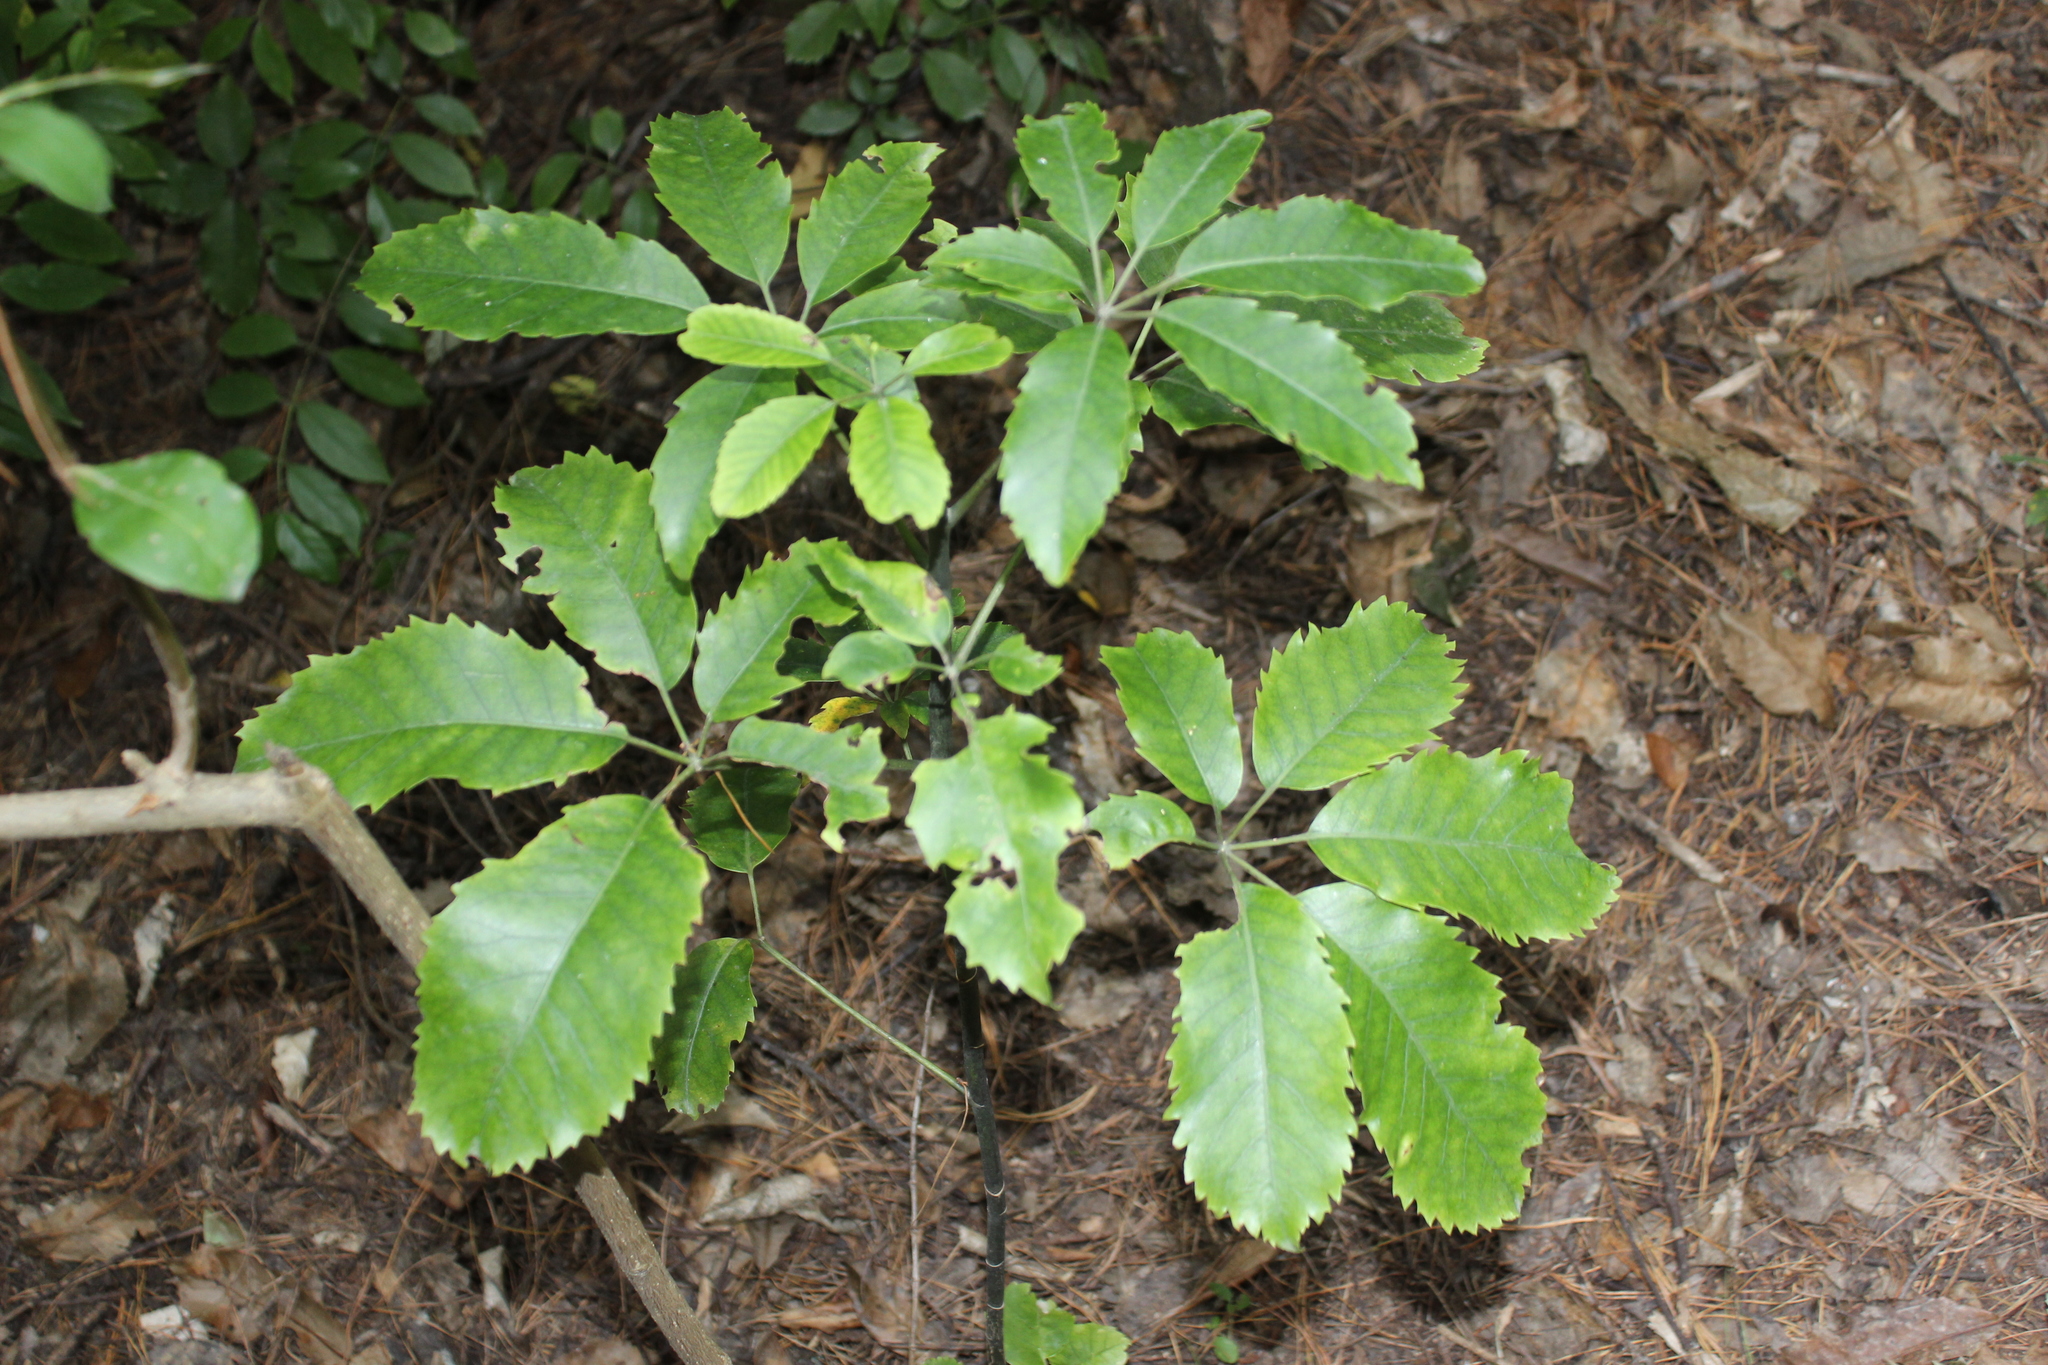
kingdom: Plantae
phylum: Tracheophyta
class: Magnoliopsida
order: Apiales
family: Araliaceae
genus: Neopanax
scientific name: Neopanax arboreus
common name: Five-fingers
